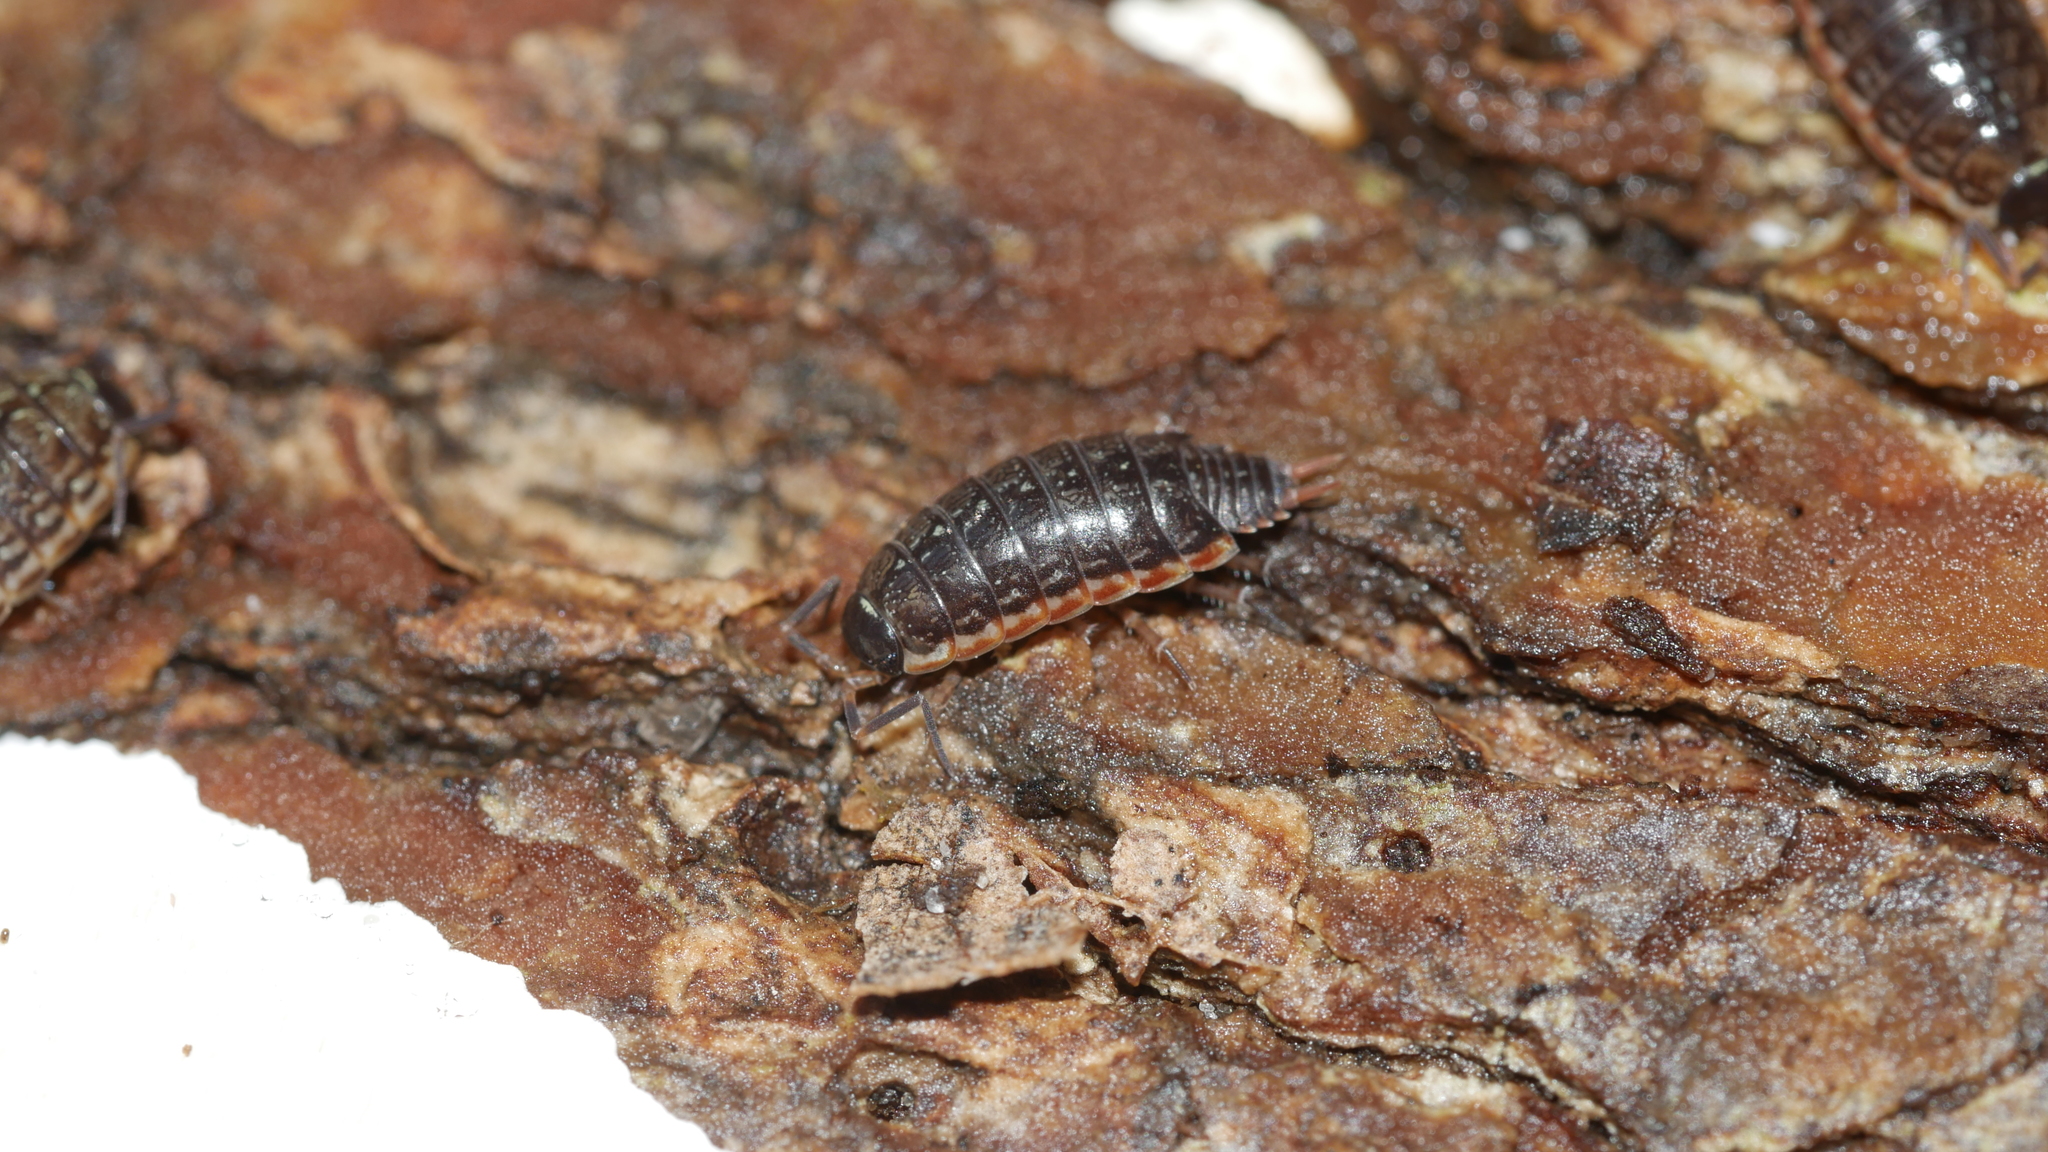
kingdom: Animalia
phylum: Arthropoda
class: Malacostraca
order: Isopoda
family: Philosciidae
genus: Philoscia
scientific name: Philoscia muscorum
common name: Common striped woodlouse
